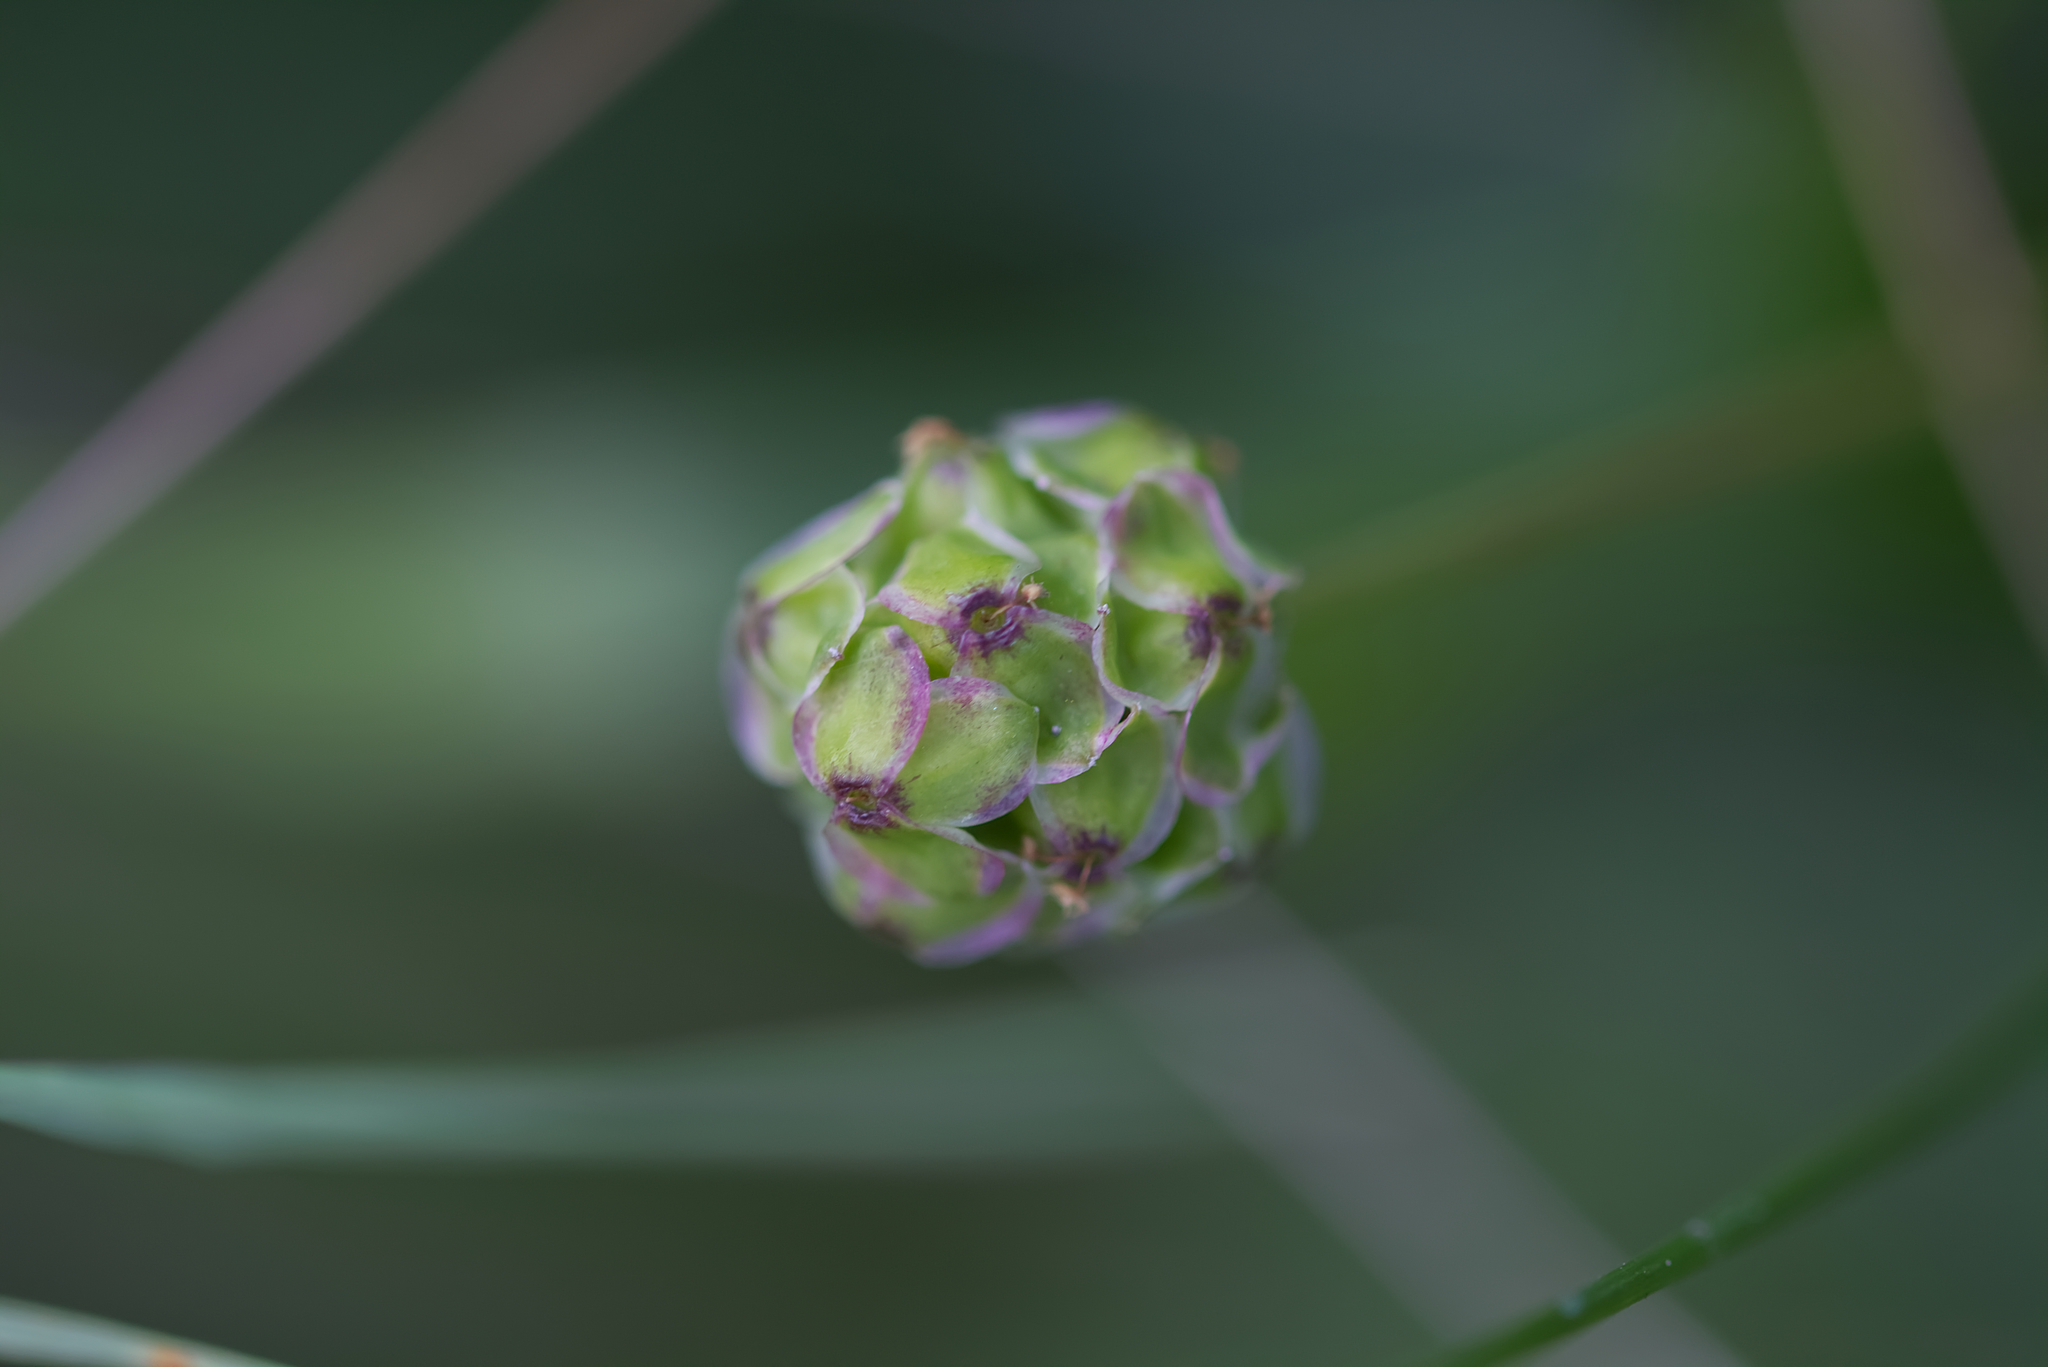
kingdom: Plantae
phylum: Tracheophyta
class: Magnoliopsida
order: Rosales
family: Rosaceae
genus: Poterium
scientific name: Poterium sanguisorba
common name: Salad burnet
